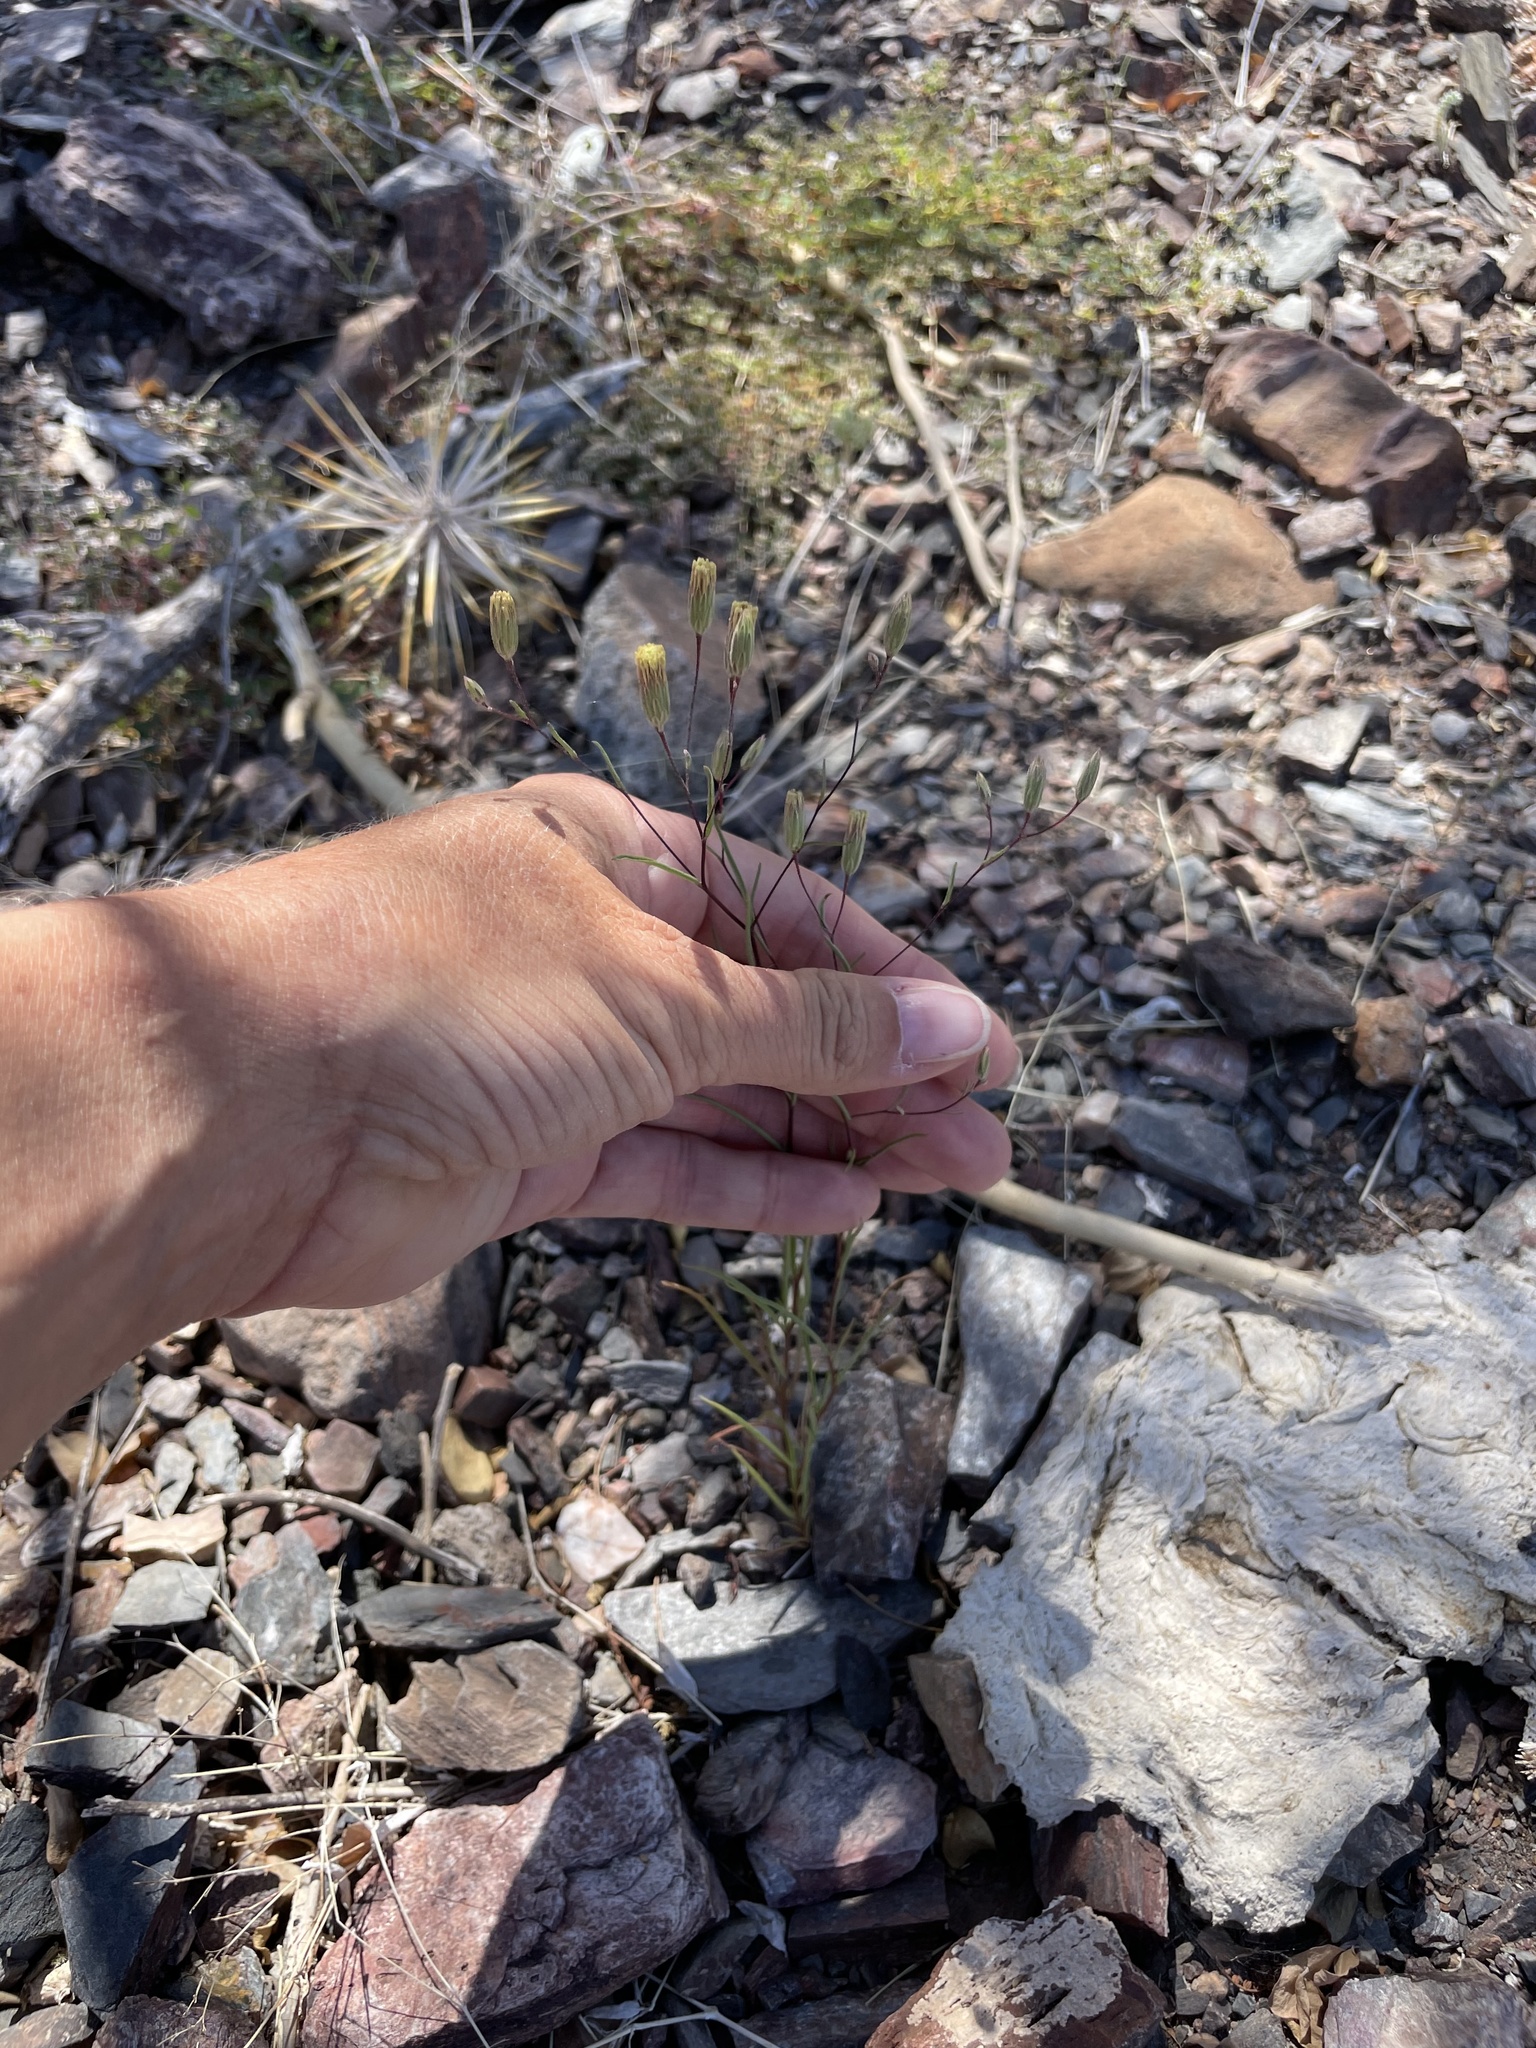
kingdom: Plantae
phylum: Tracheophyta
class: Magnoliopsida
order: Asterales
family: Asteraceae
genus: Malperia
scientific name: Malperia tenuis
